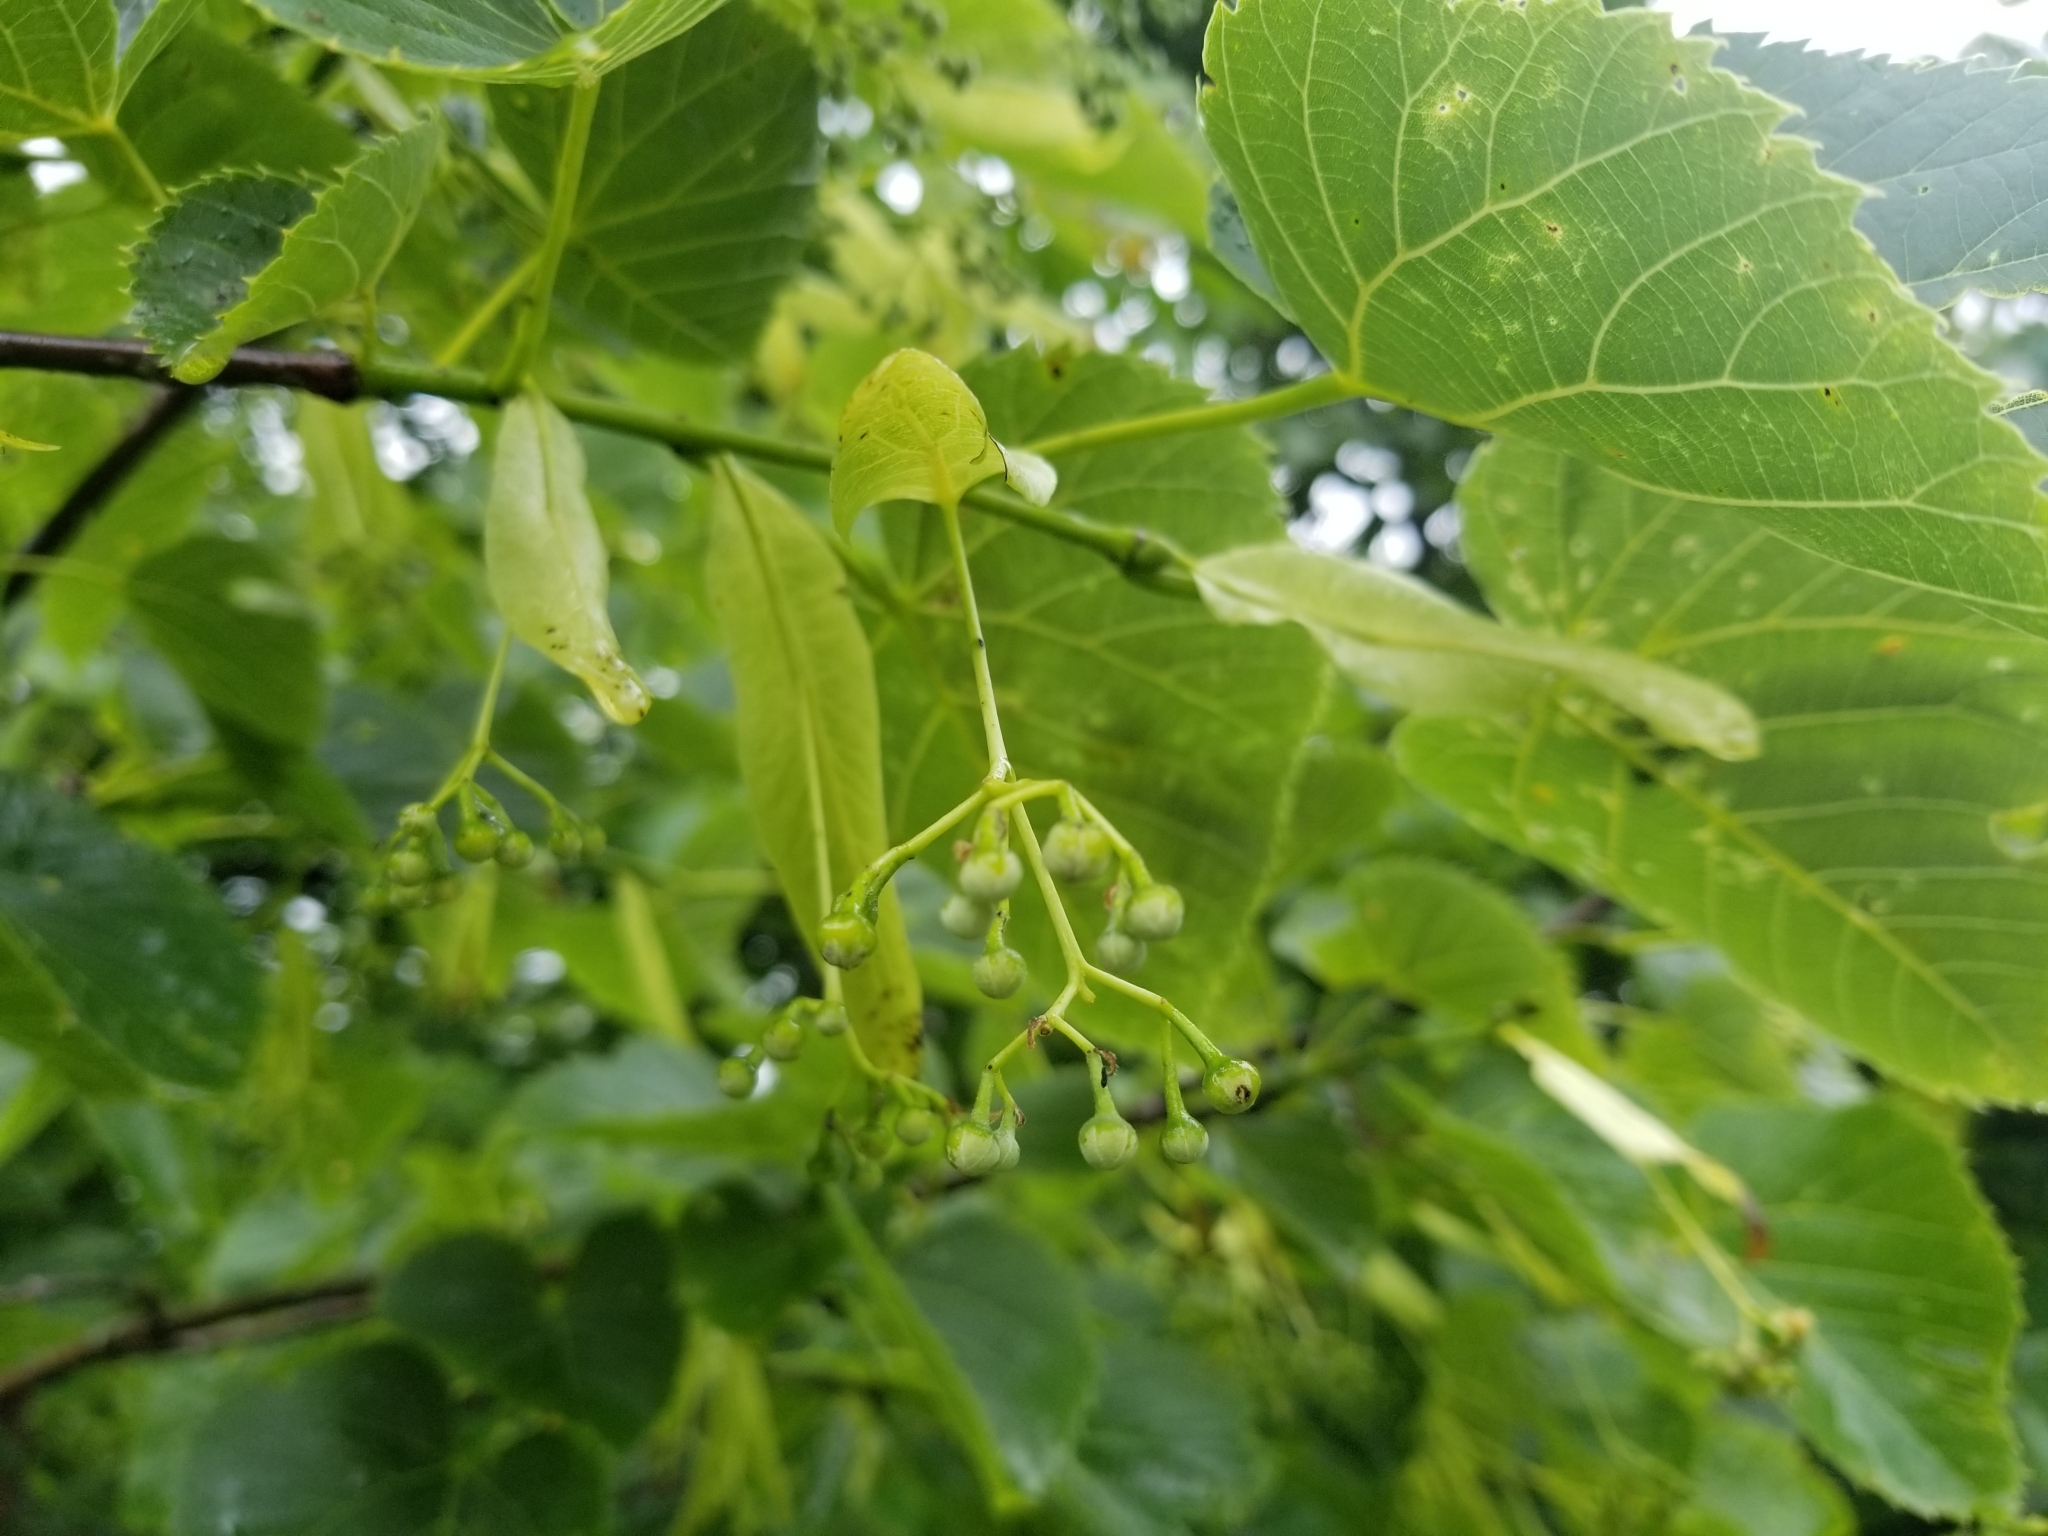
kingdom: Plantae
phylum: Tracheophyta
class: Magnoliopsida
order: Malvales
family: Malvaceae
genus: Tilia
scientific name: Tilia americana
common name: Basswood
